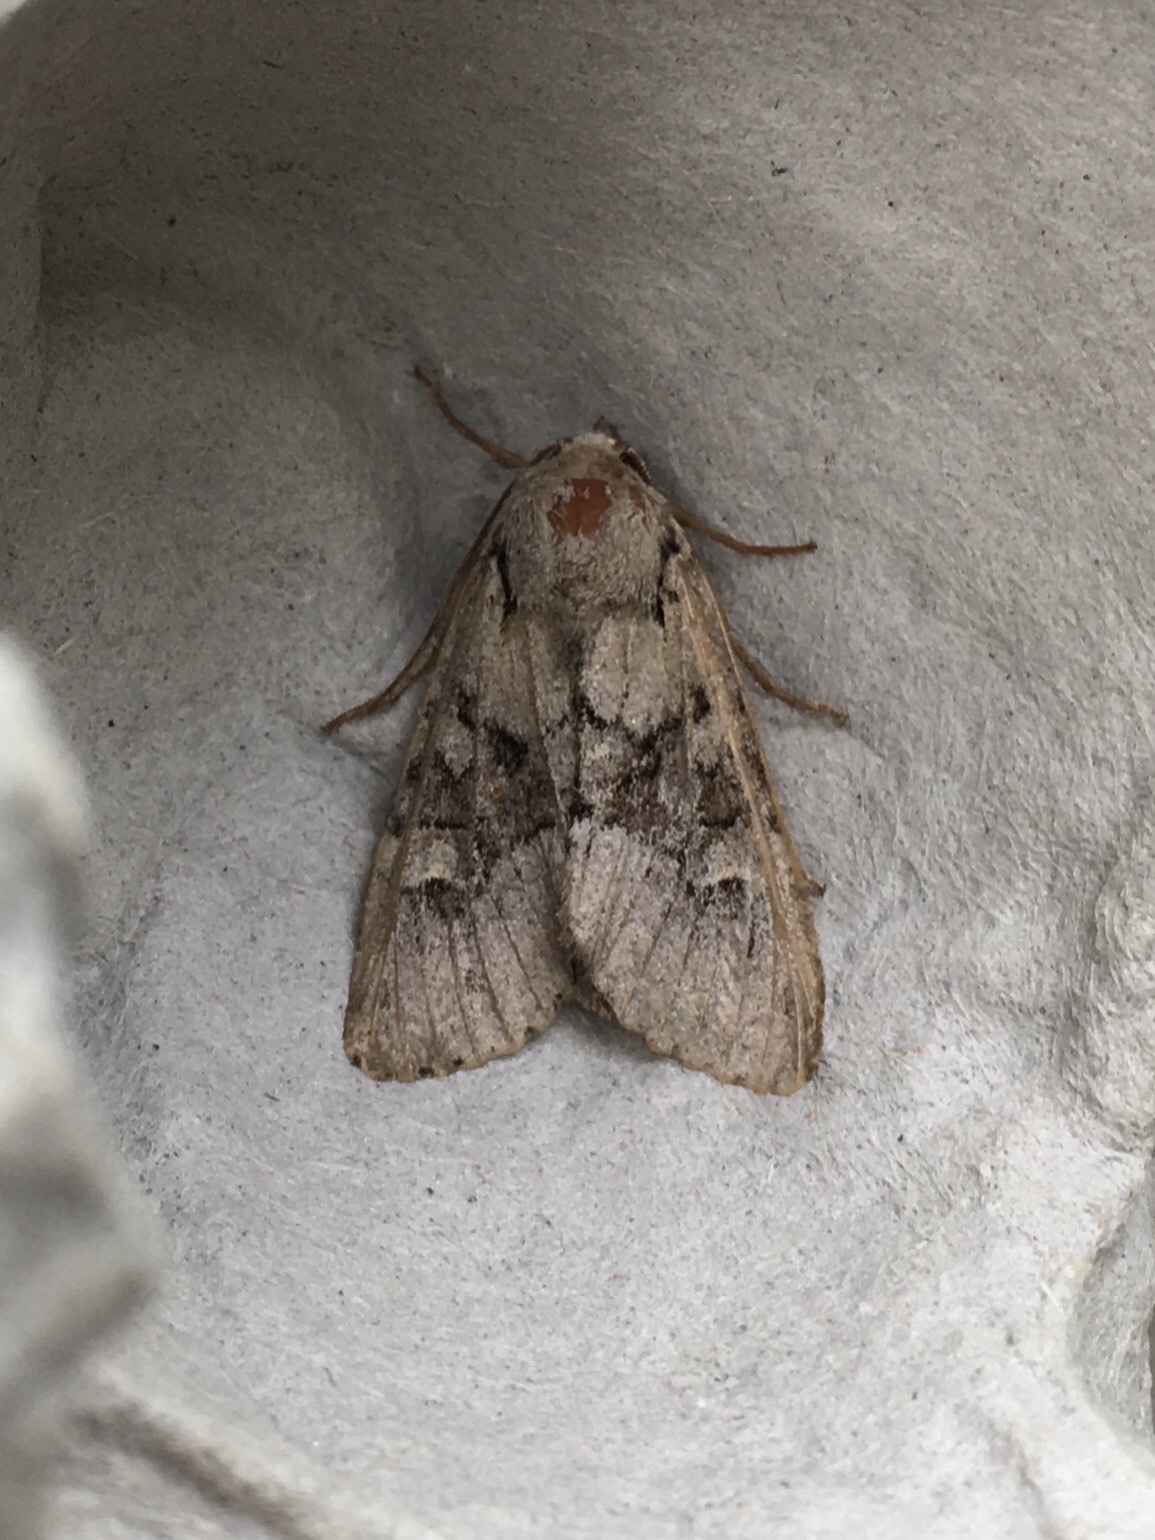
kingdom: Animalia
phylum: Arthropoda
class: Insecta
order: Lepidoptera
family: Noctuidae
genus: Apamea
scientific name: Apamea sordens
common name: Rustic shoulder-knot
